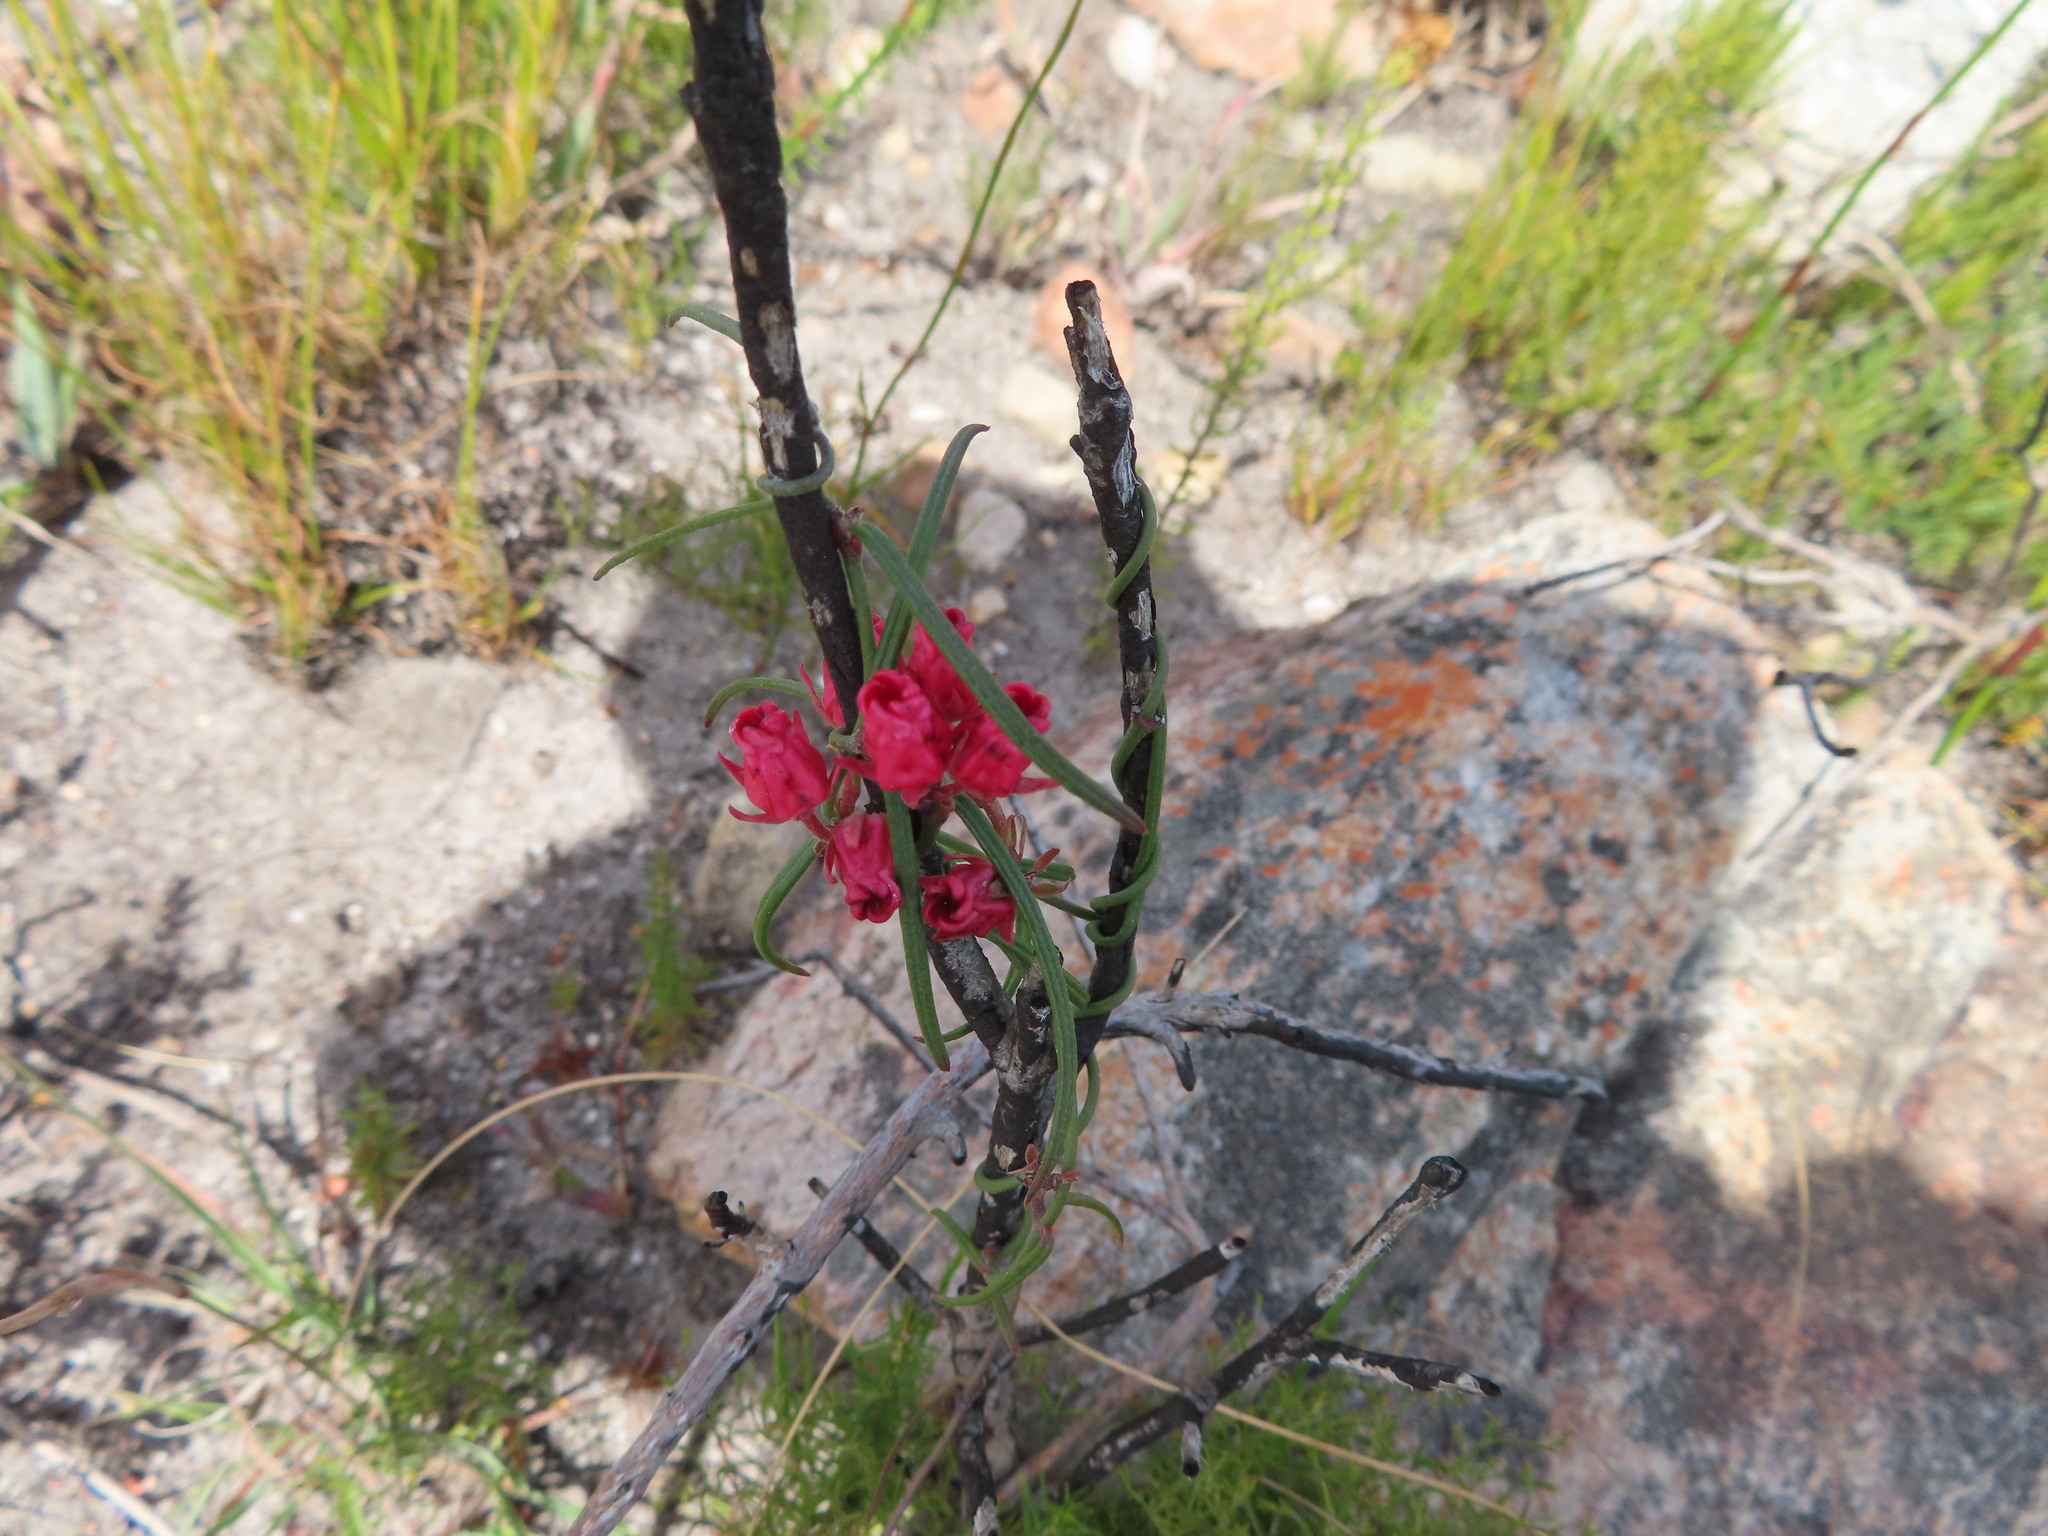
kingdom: Plantae
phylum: Tracheophyta
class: Magnoliopsida
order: Gentianales
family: Apocynaceae
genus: Microloma
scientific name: Microloma tenuifolium
